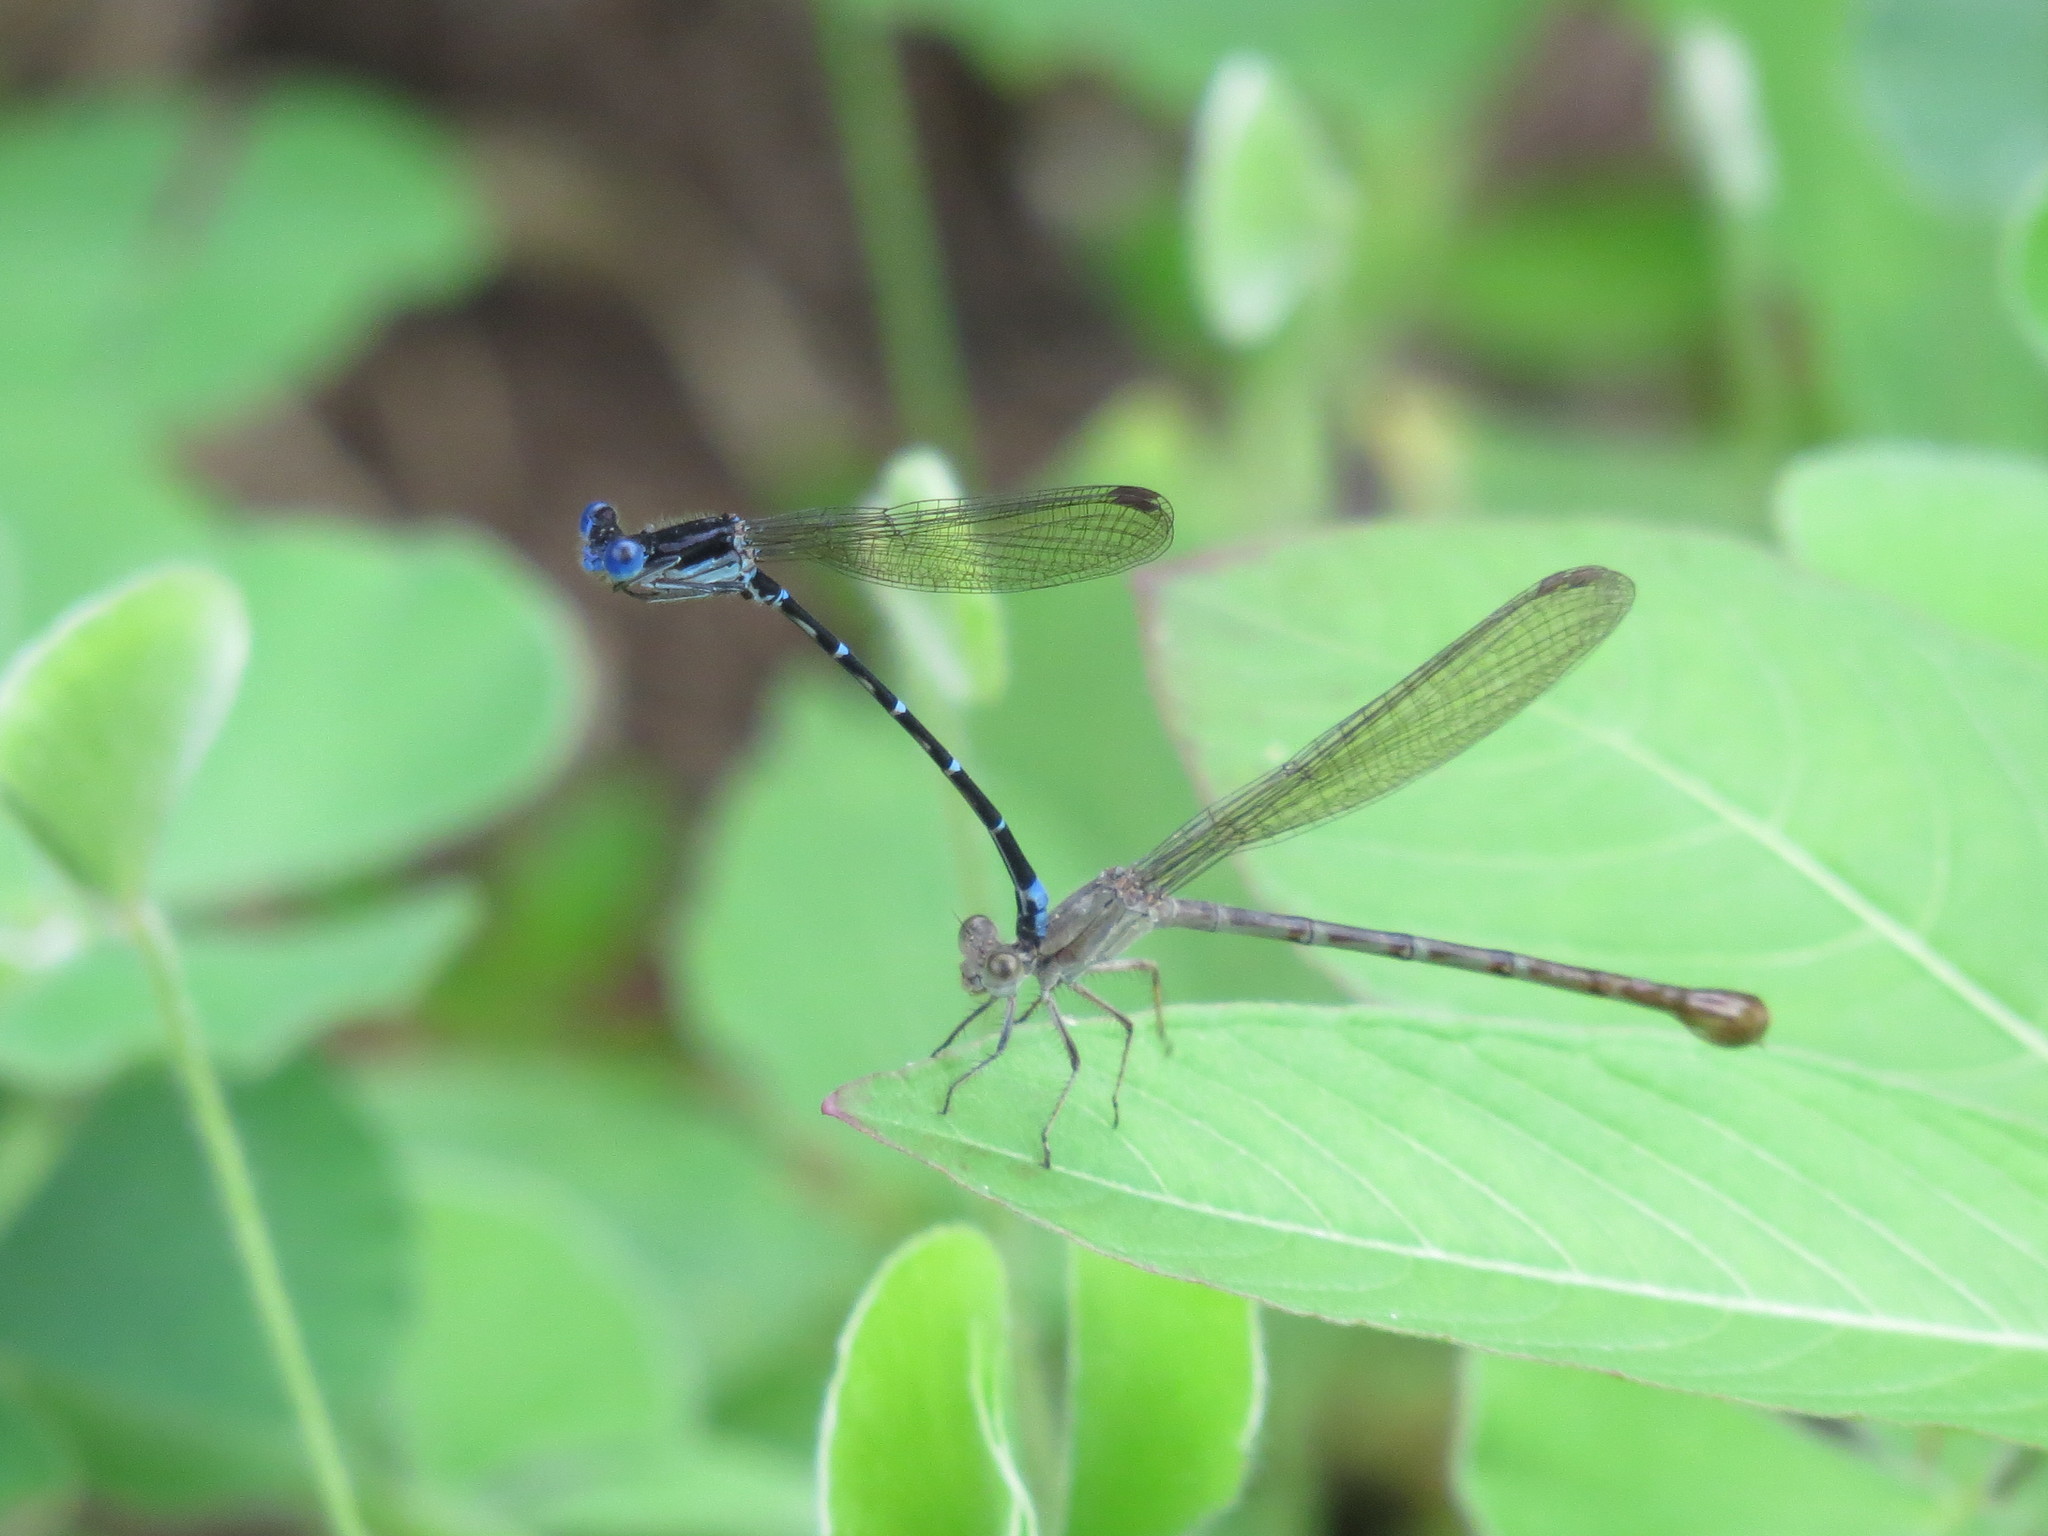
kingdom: Animalia
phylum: Arthropoda
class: Insecta
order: Odonata
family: Coenagrionidae
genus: Argia
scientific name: Argia sedula
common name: Blue-ringed dancer
